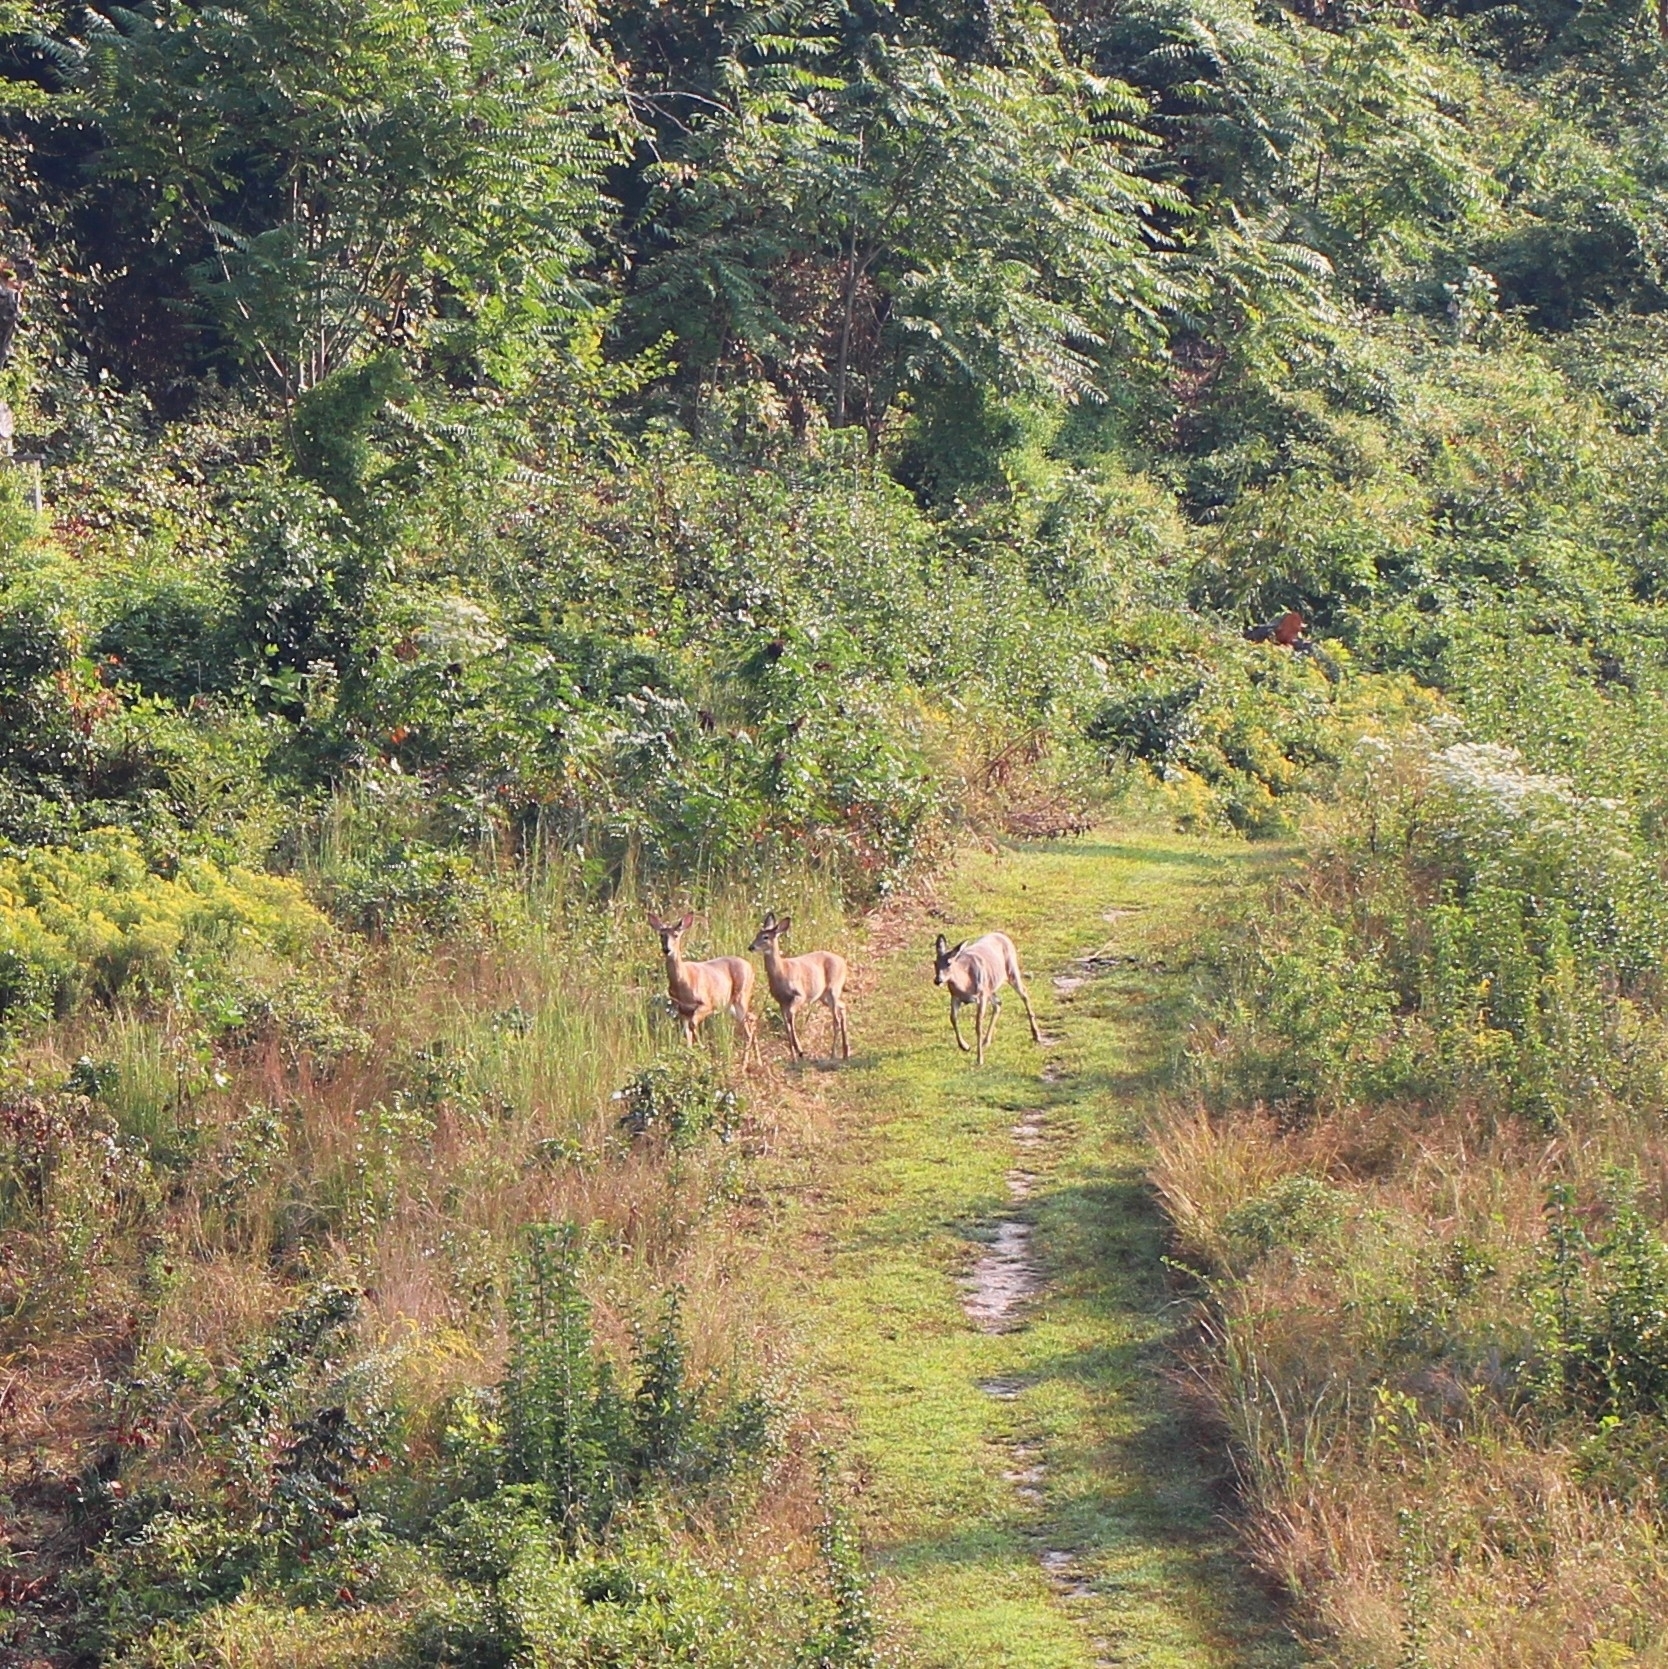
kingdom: Animalia
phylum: Chordata
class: Mammalia
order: Artiodactyla
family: Cervidae
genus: Odocoileus
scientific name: Odocoileus virginianus
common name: White-tailed deer
